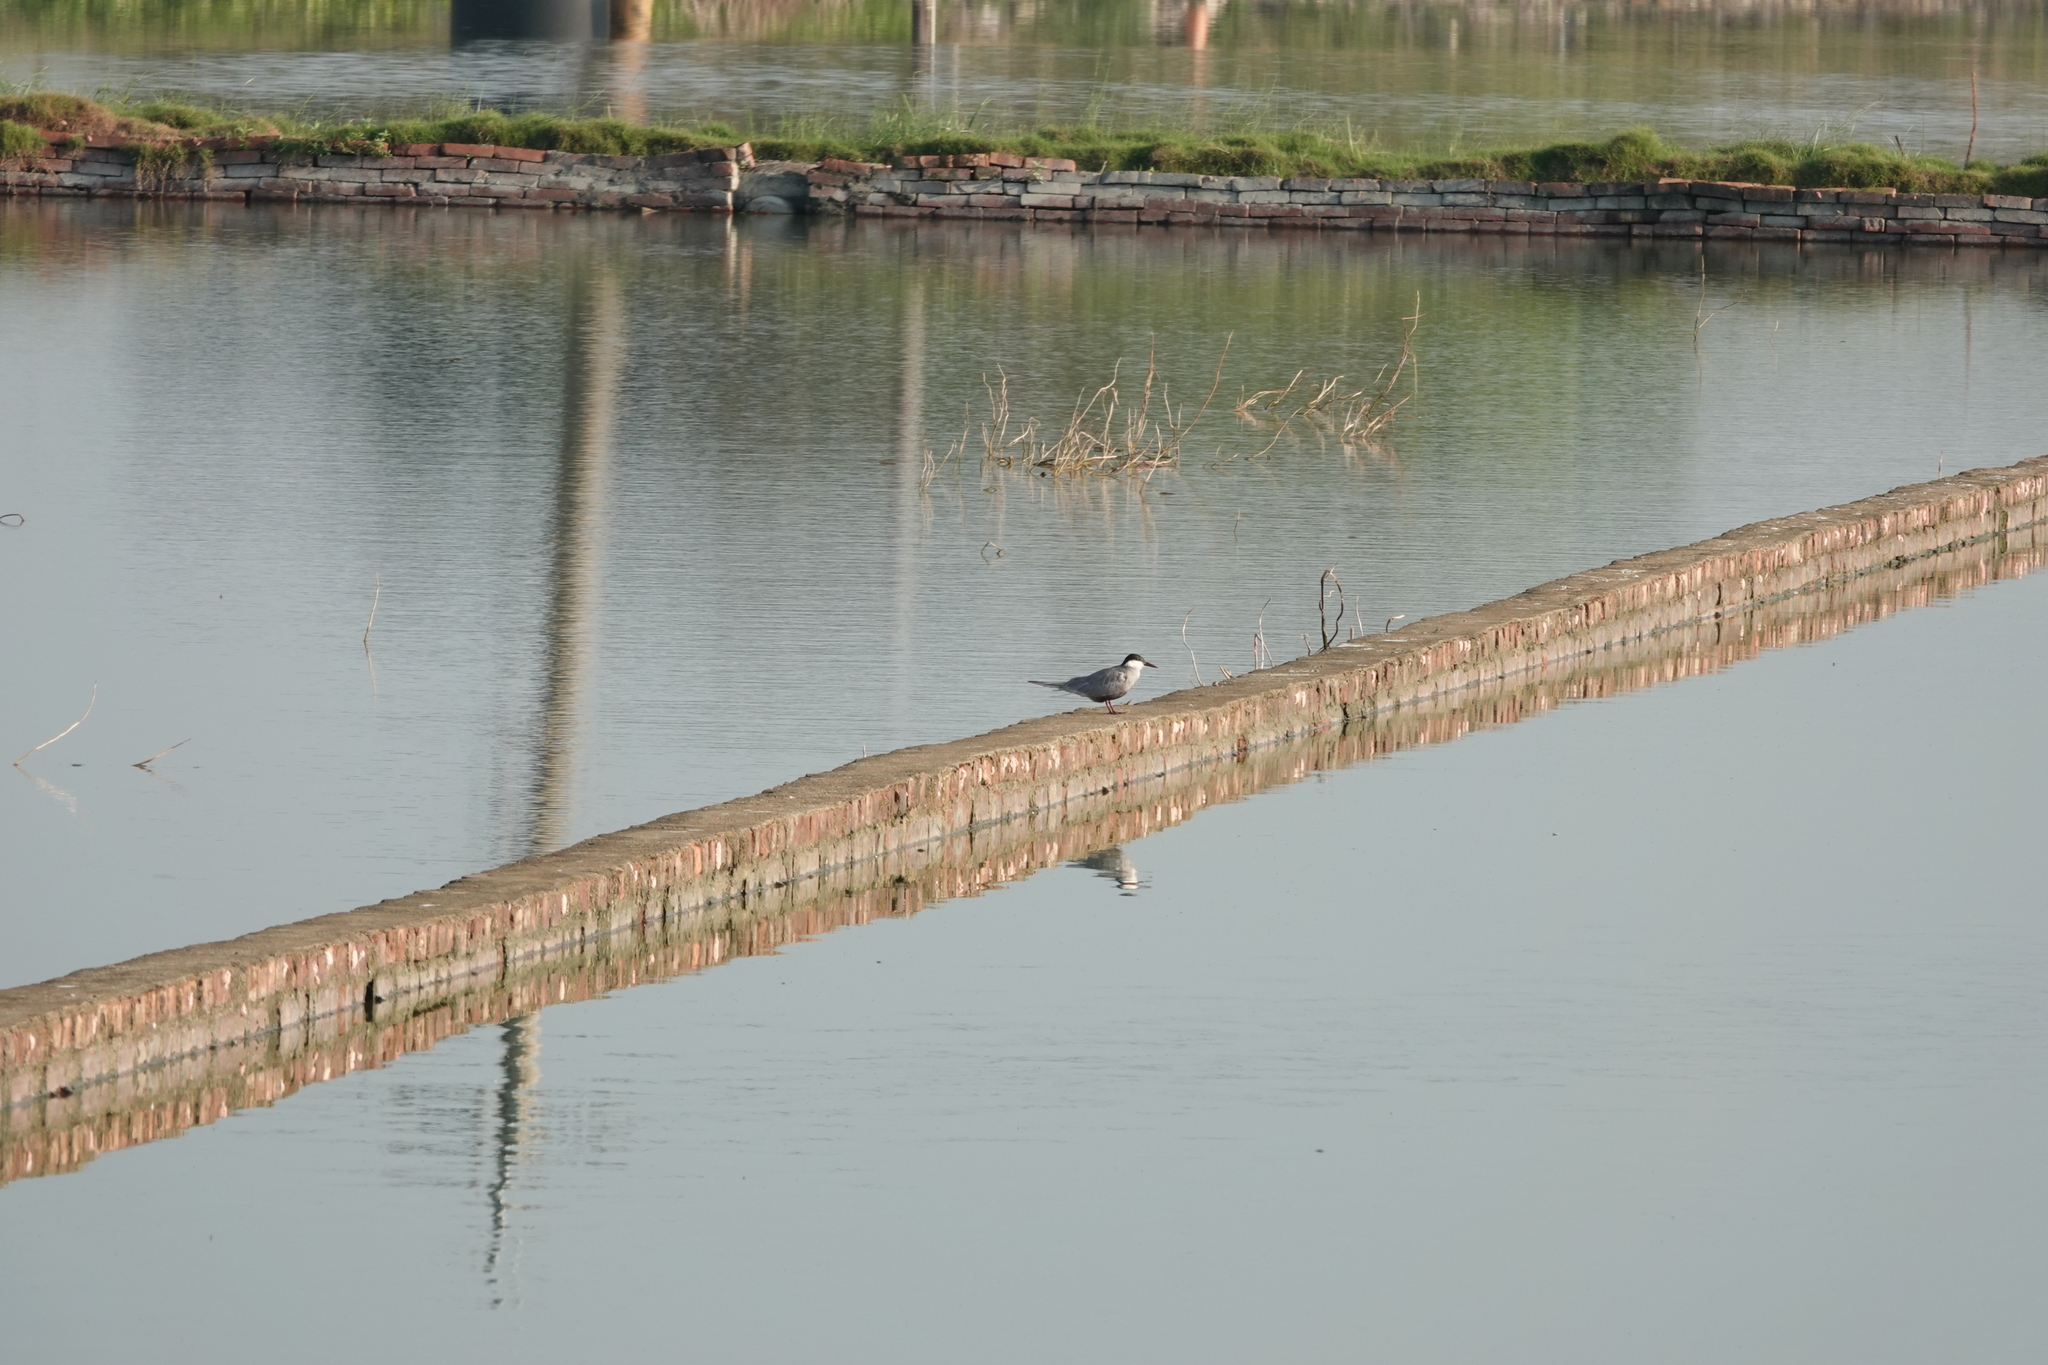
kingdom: Animalia
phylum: Chordata
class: Aves
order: Charadriiformes
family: Laridae
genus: Chlidonias
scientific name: Chlidonias hybrida
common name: Whiskered tern
